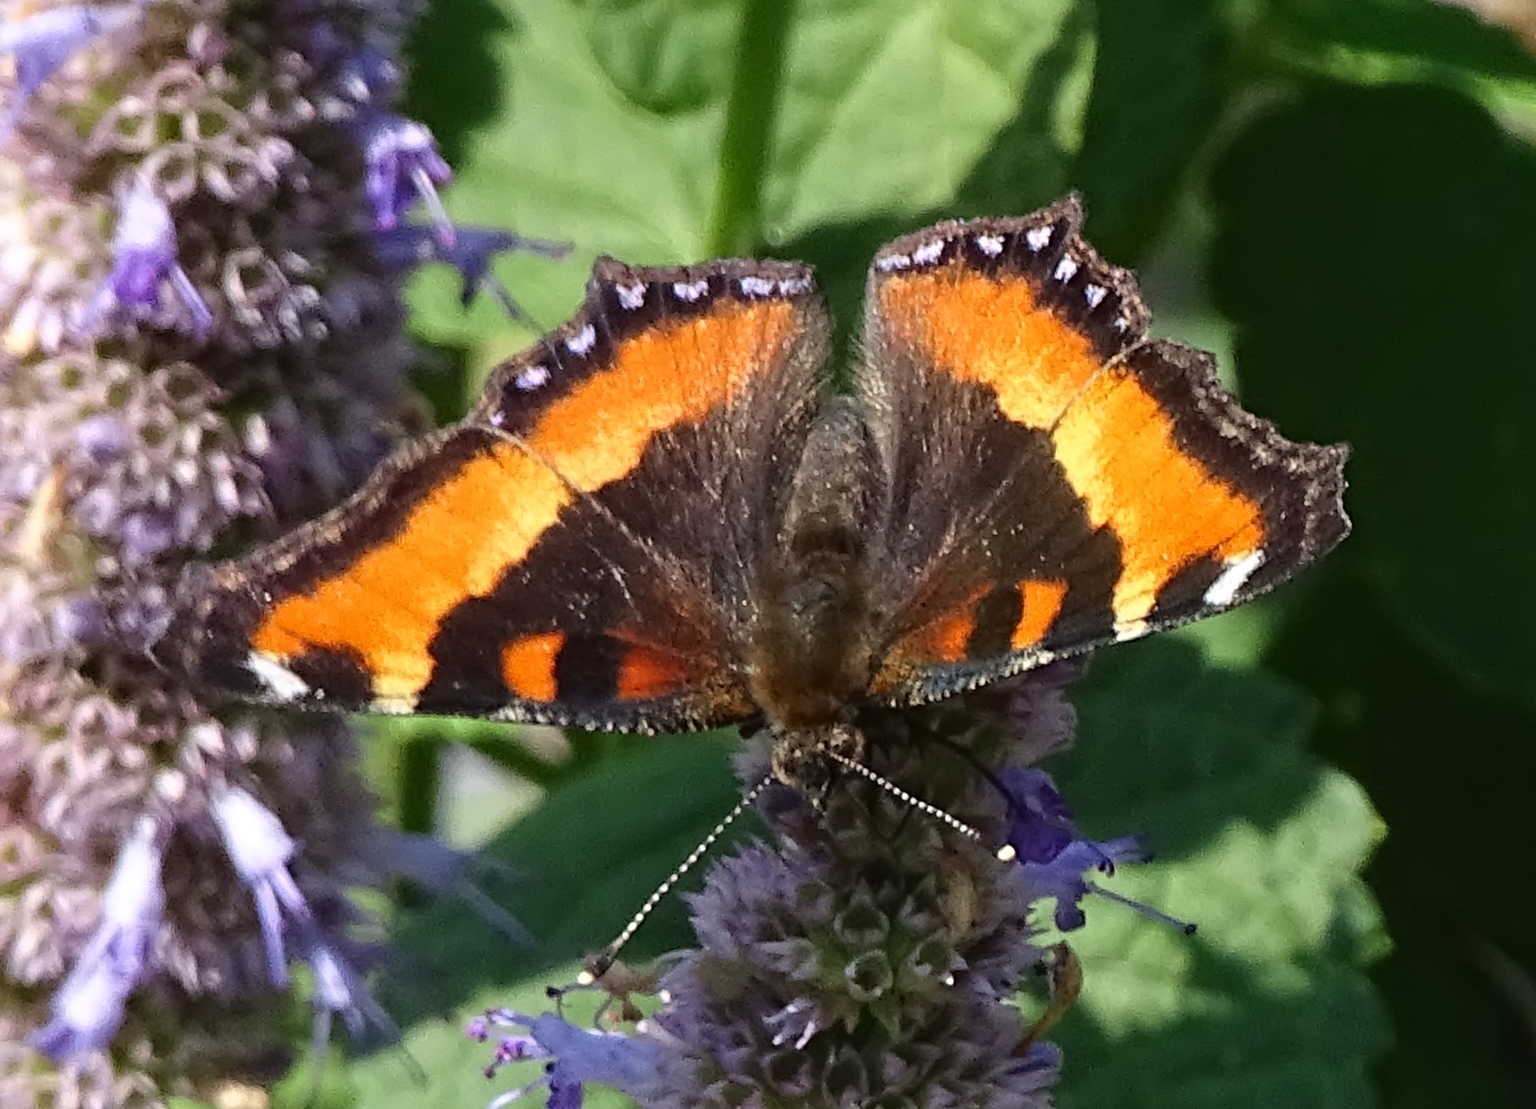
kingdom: Animalia
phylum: Arthropoda
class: Insecta
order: Lepidoptera
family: Nymphalidae
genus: Aglais
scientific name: Aglais milberti
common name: Milbert's tortoiseshell
